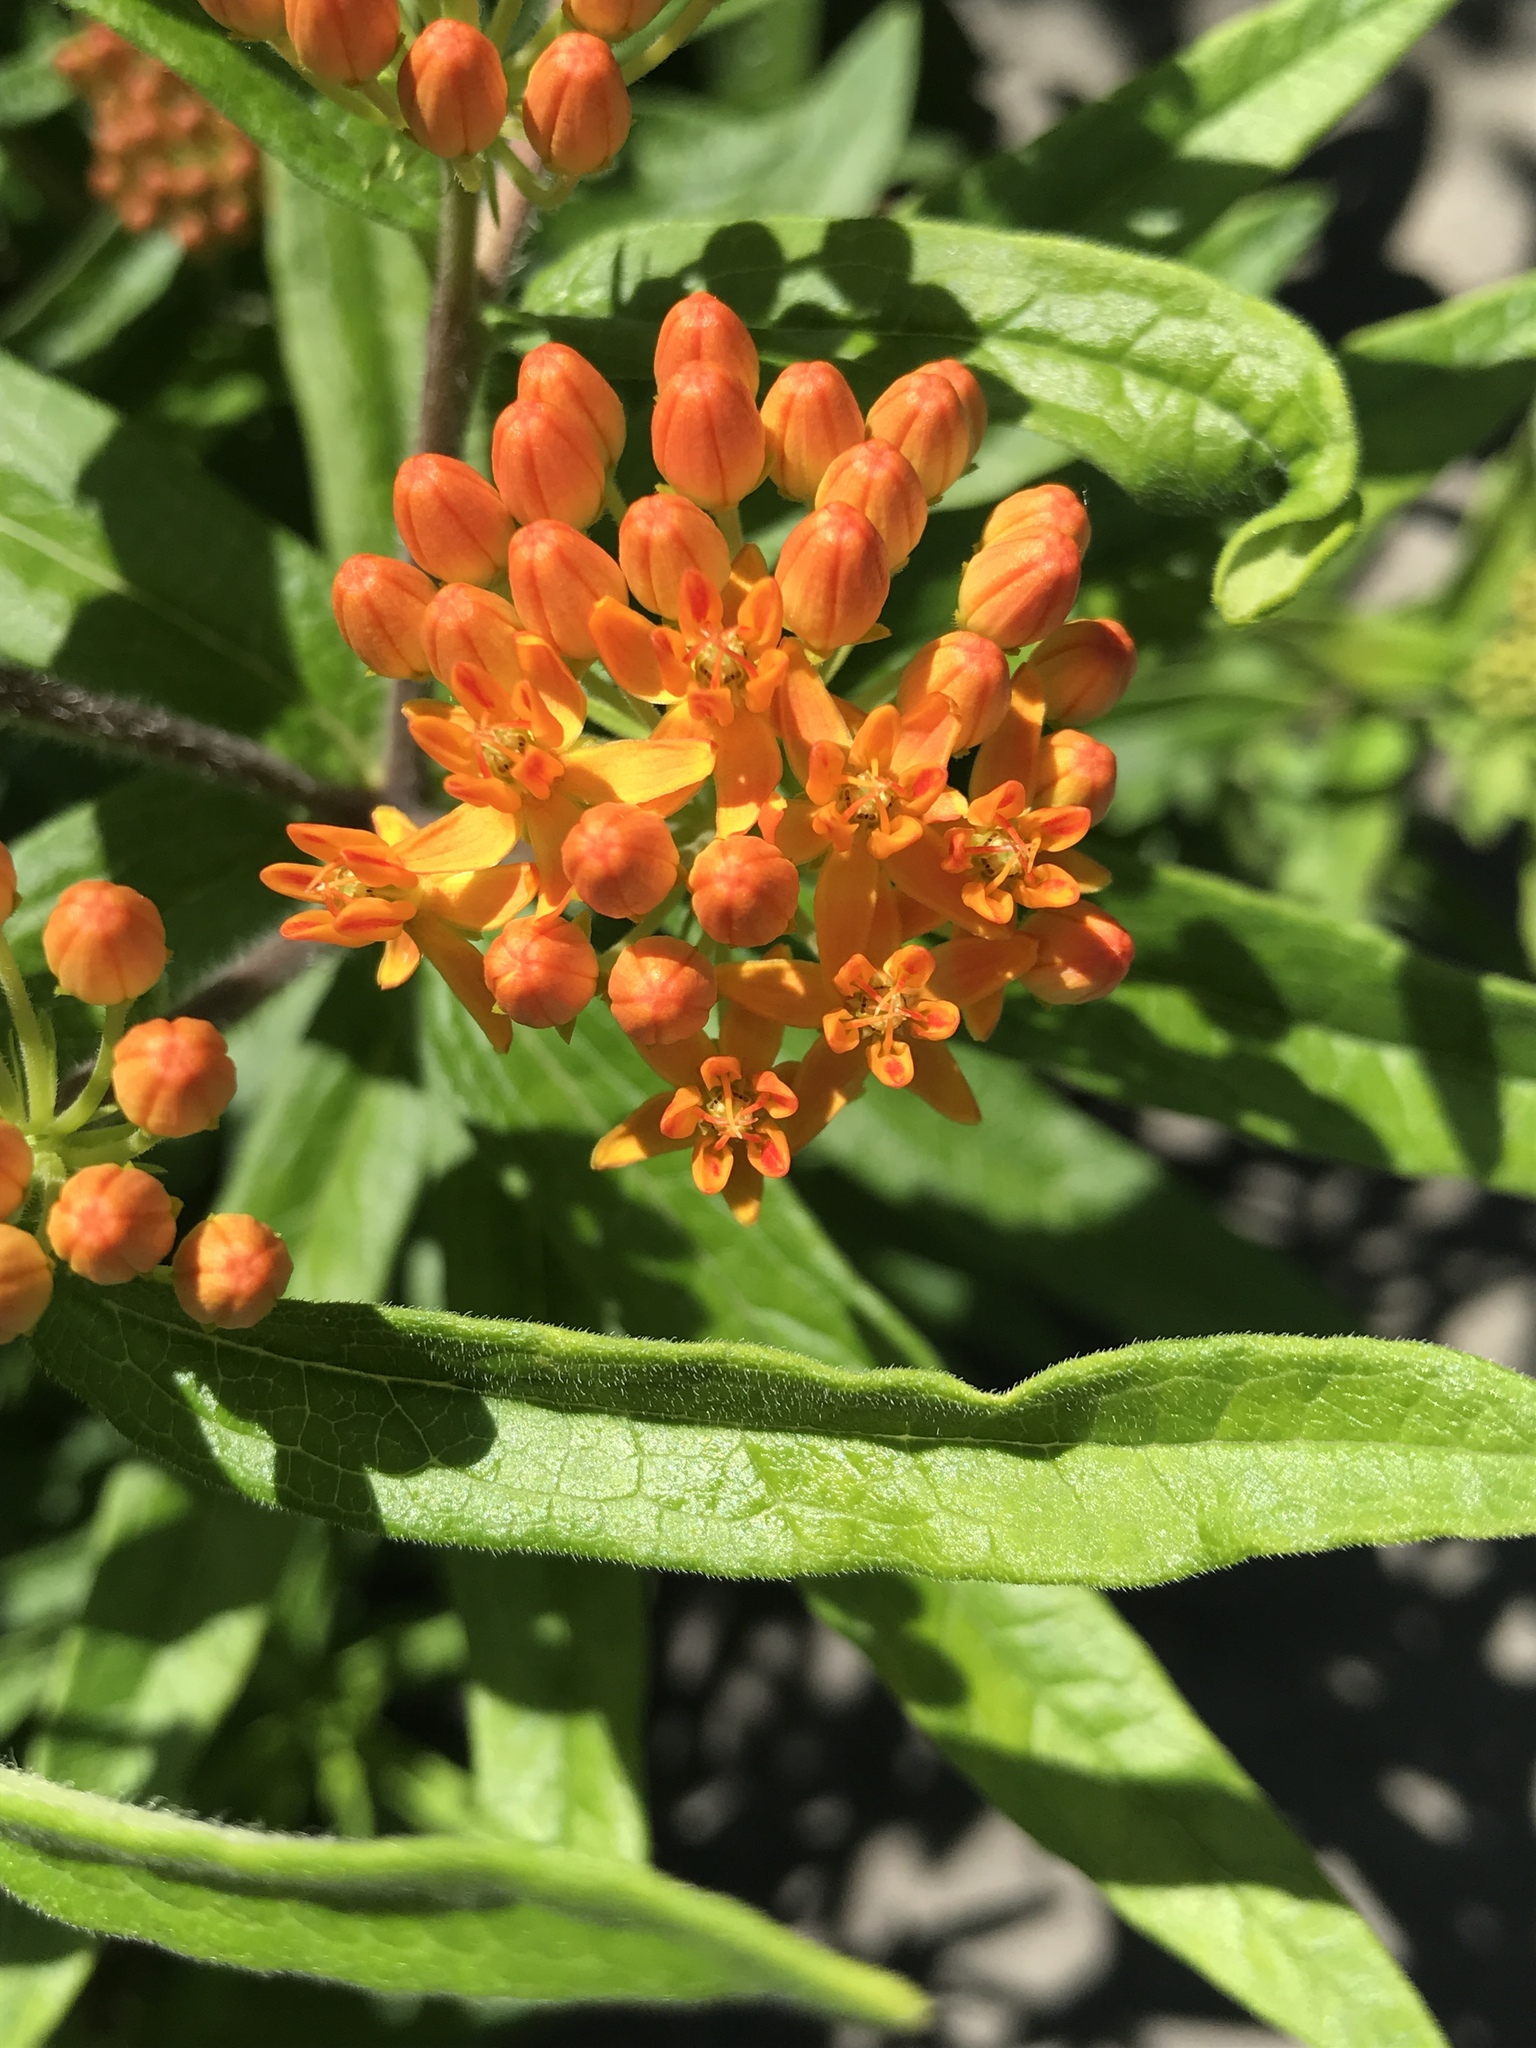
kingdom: Plantae
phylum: Tracheophyta
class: Magnoliopsida
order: Gentianales
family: Apocynaceae
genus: Asclepias
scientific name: Asclepias tuberosa
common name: Butterfly milkweed
